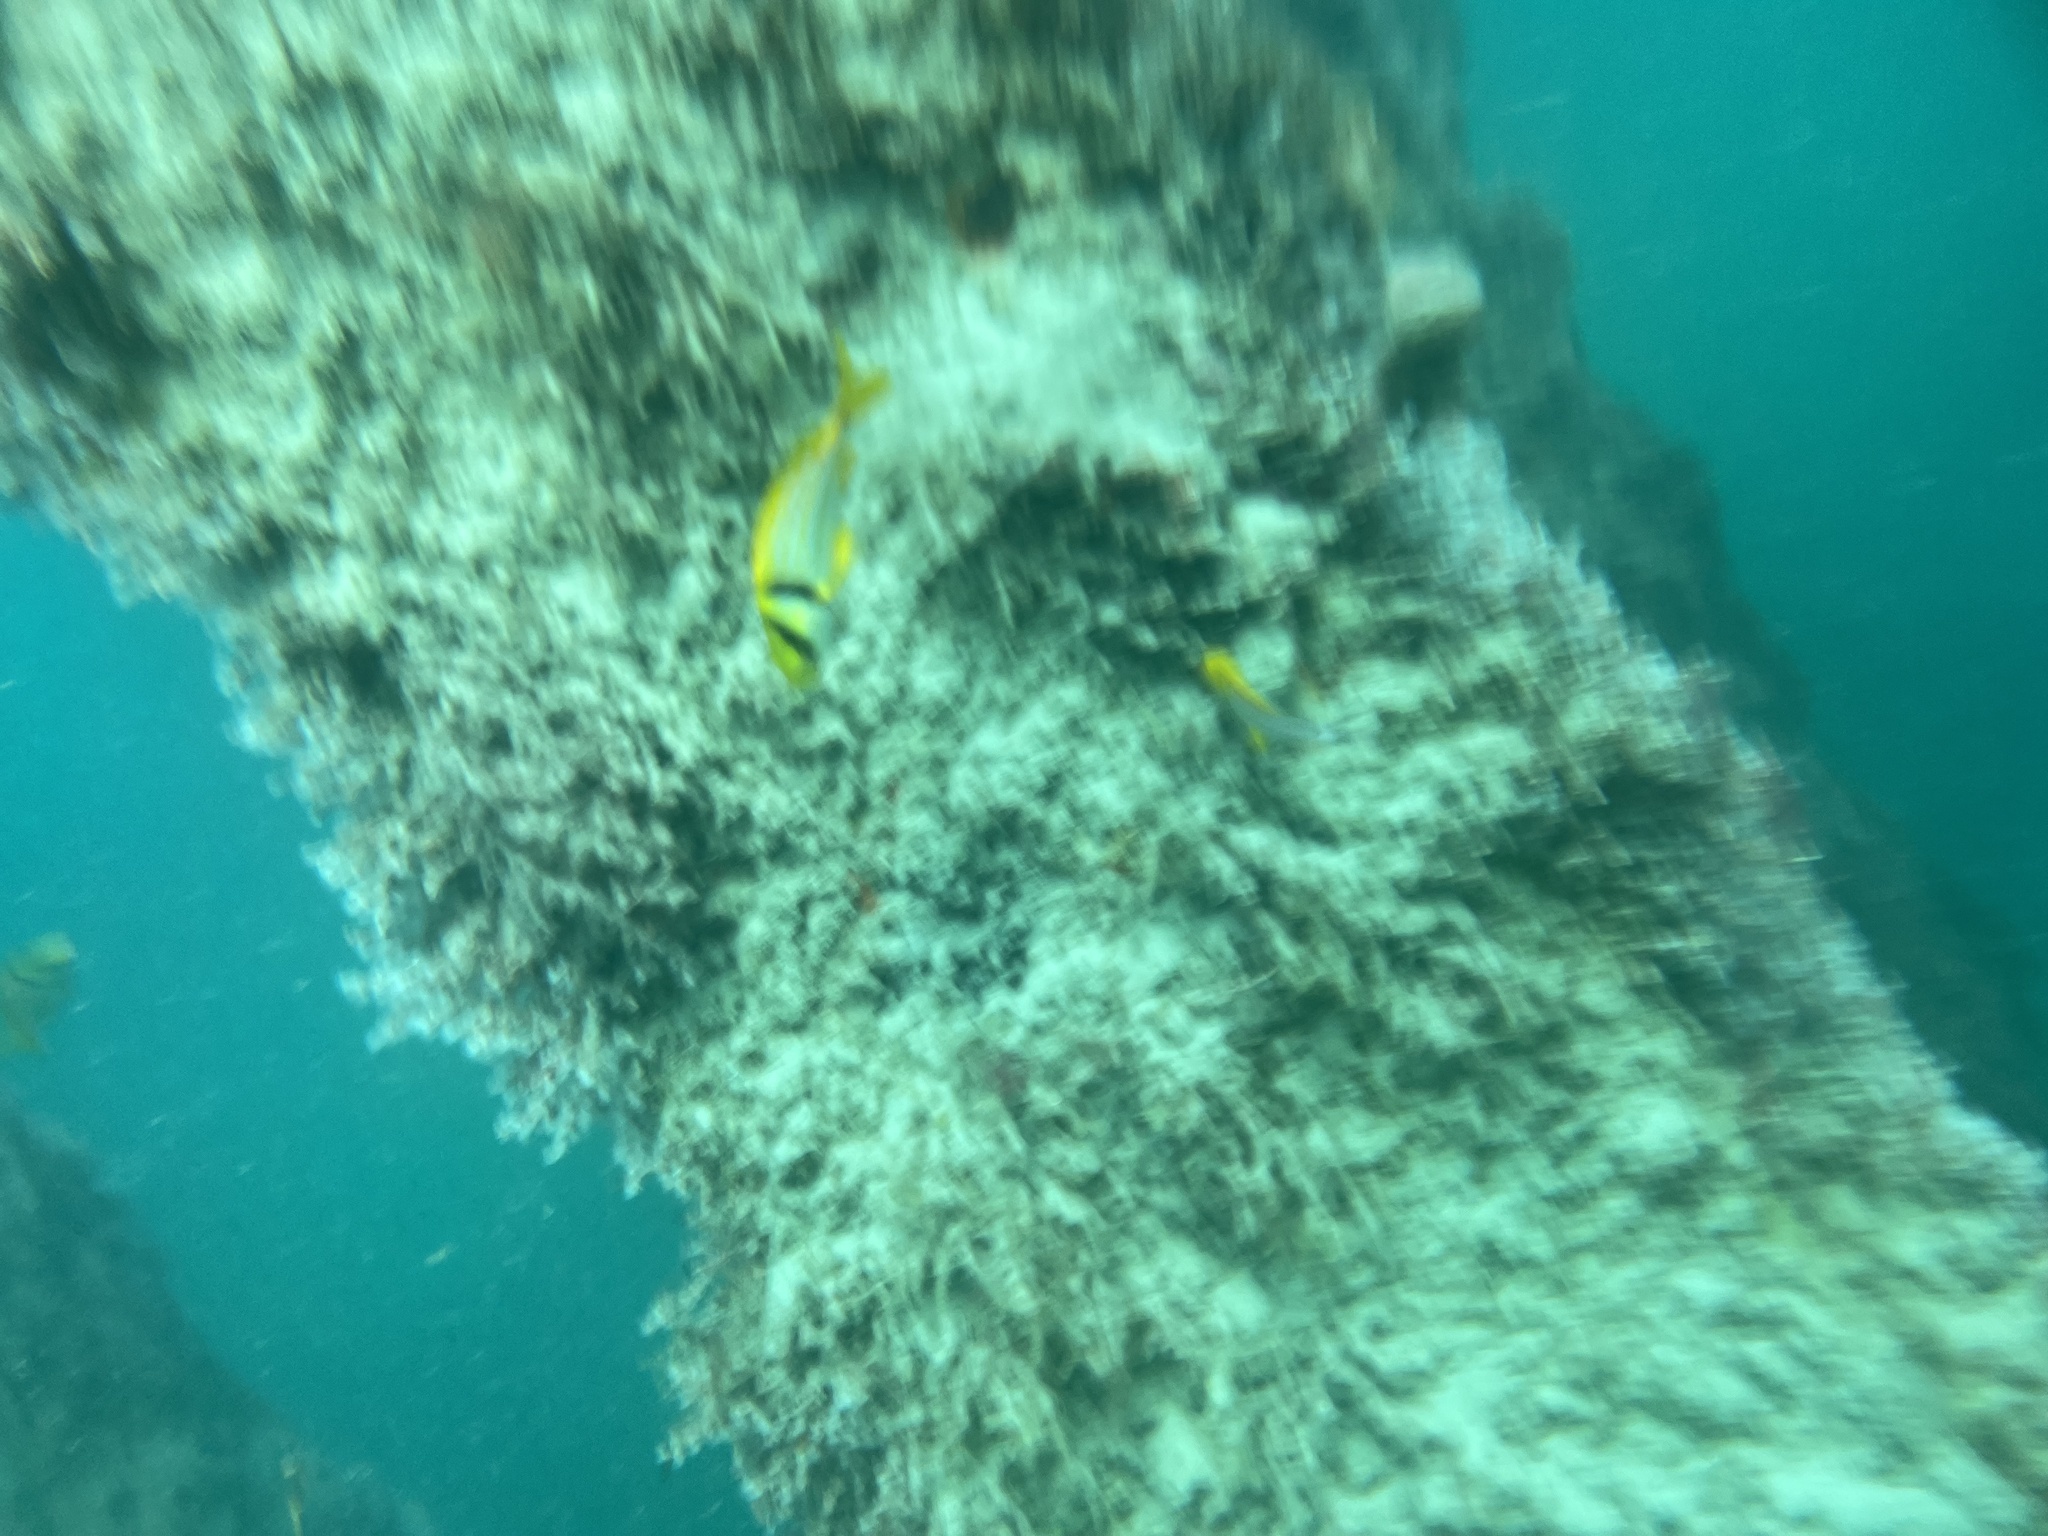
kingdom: Animalia
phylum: Chordata
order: Perciformes
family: Haemulidae
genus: Anisotremus
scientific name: Anisotremus virginicus
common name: Porkfish
